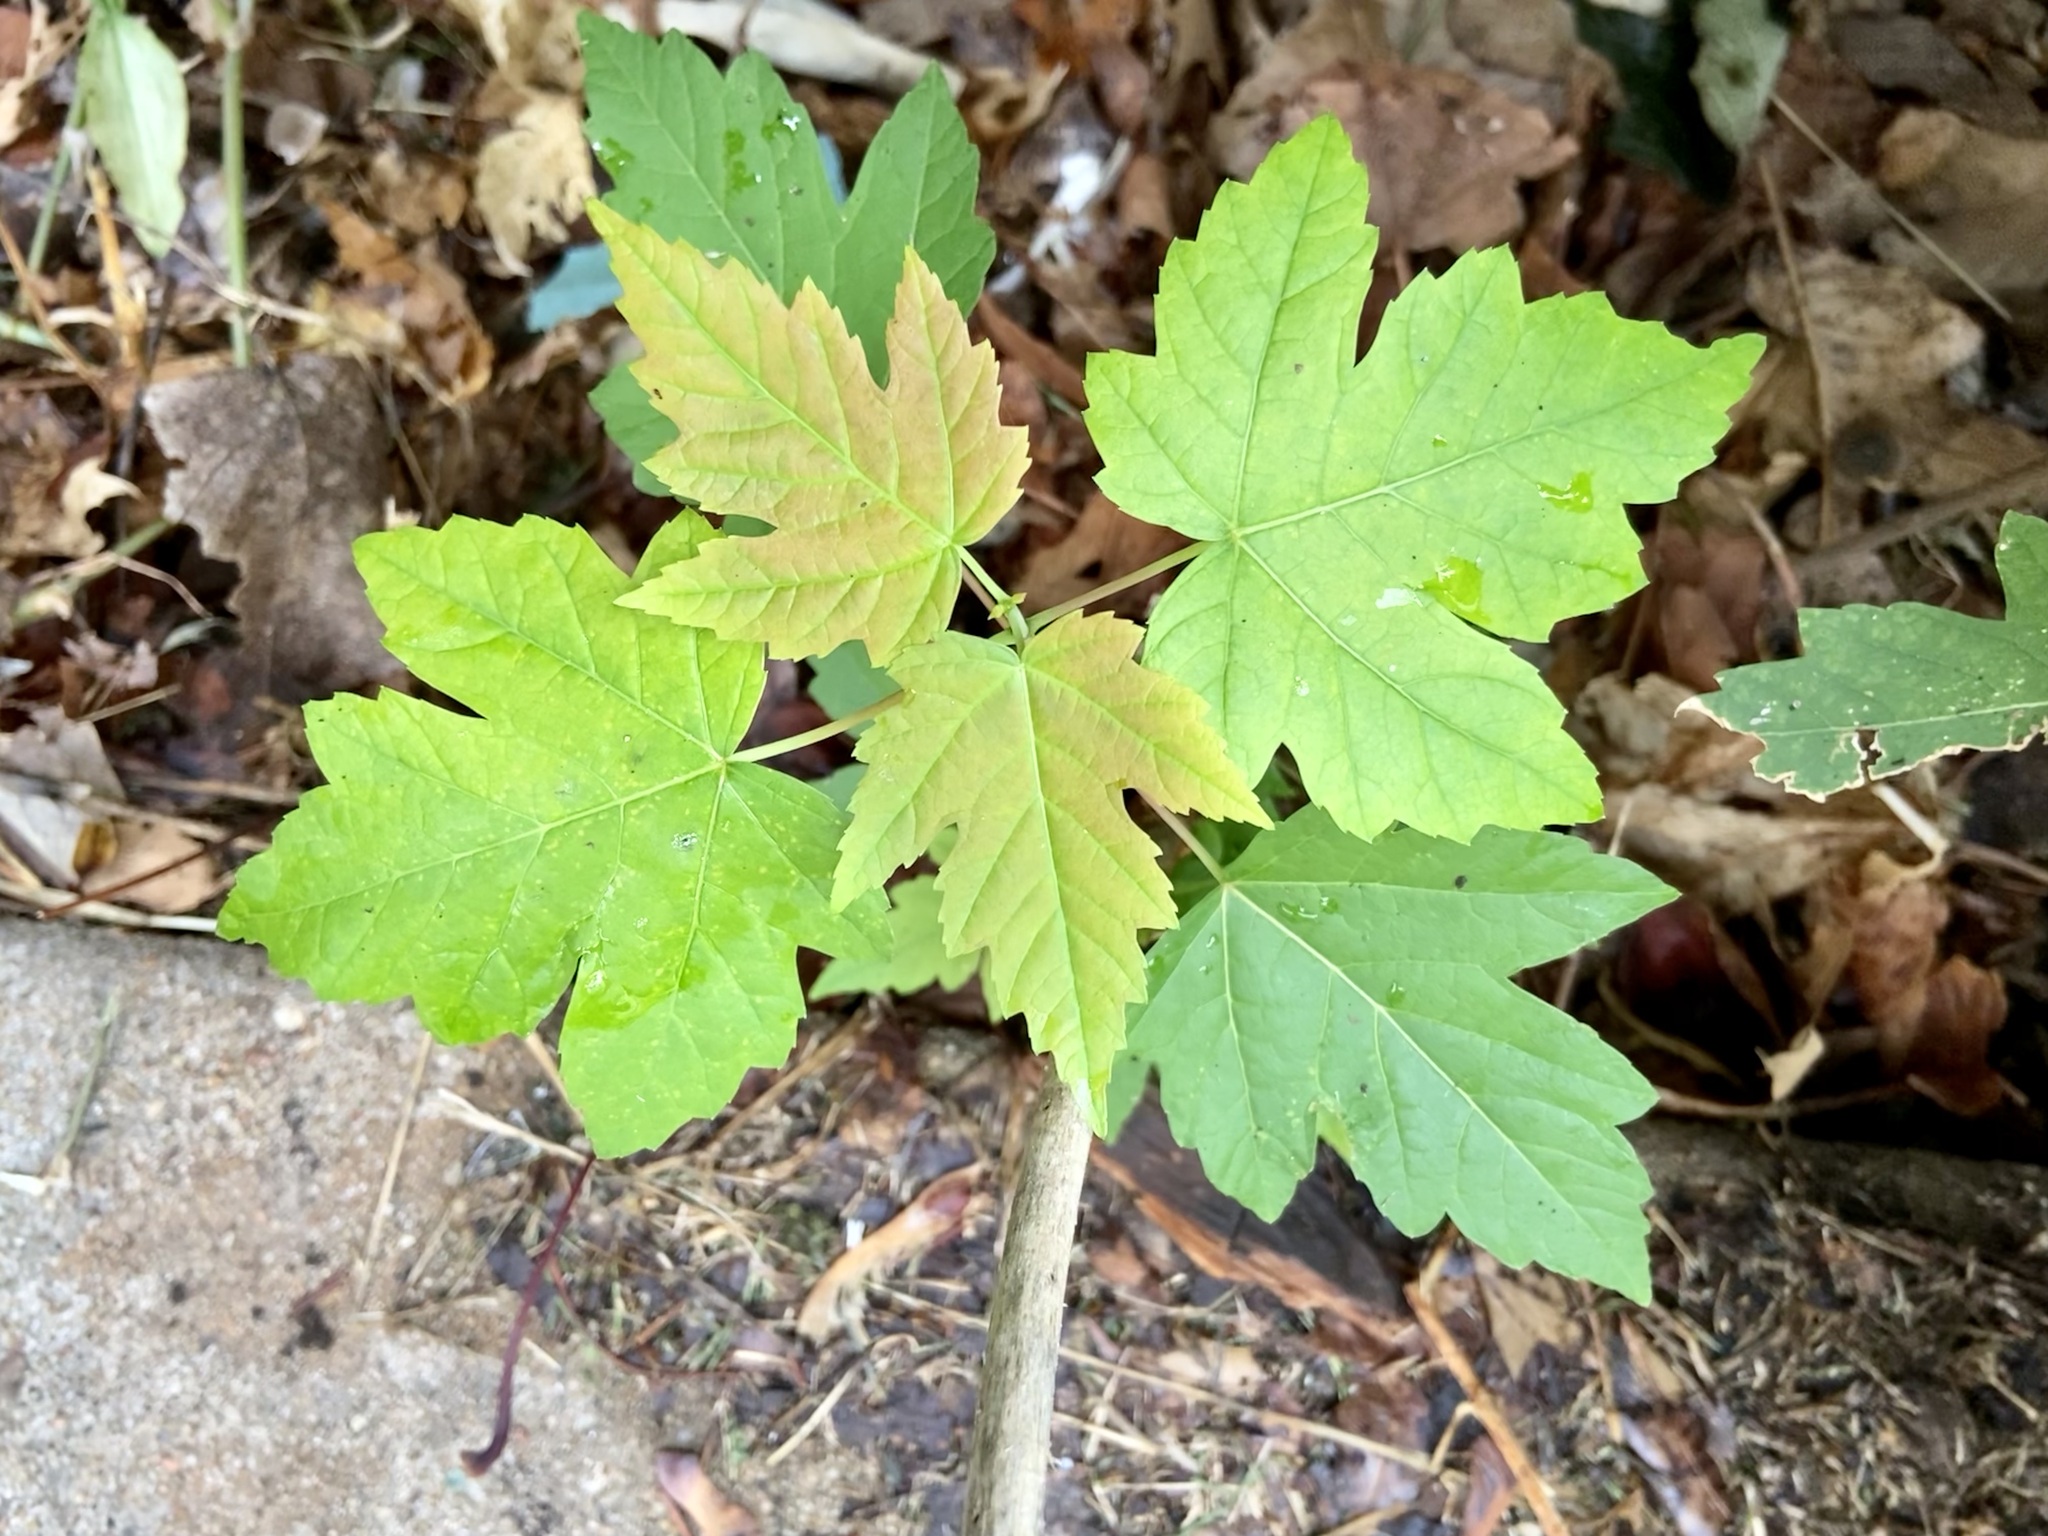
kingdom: Plantae
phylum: Tracheophyta
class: Magnoliopsida
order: Sapindales
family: Sapindaceae
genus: Acer
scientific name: Acer rubrum
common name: Red maple
